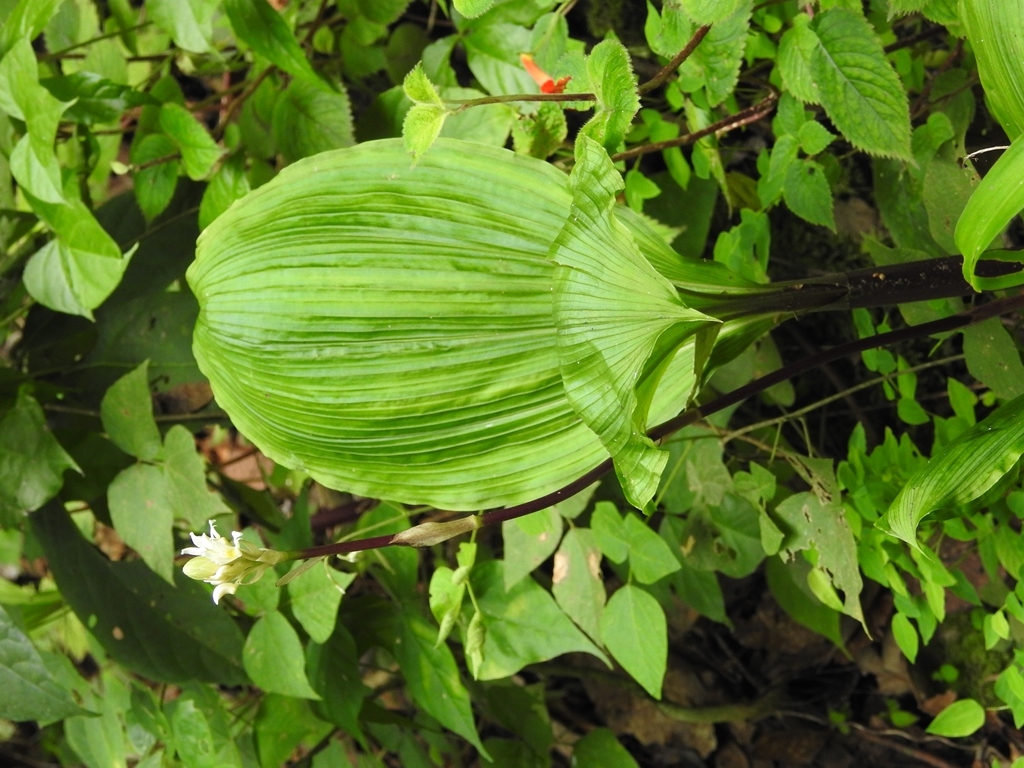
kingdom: Plantae
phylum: Tracheophyta
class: Liliopsida
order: Asparagales
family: Orchidaceae
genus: Govenia
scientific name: Govenia alba
